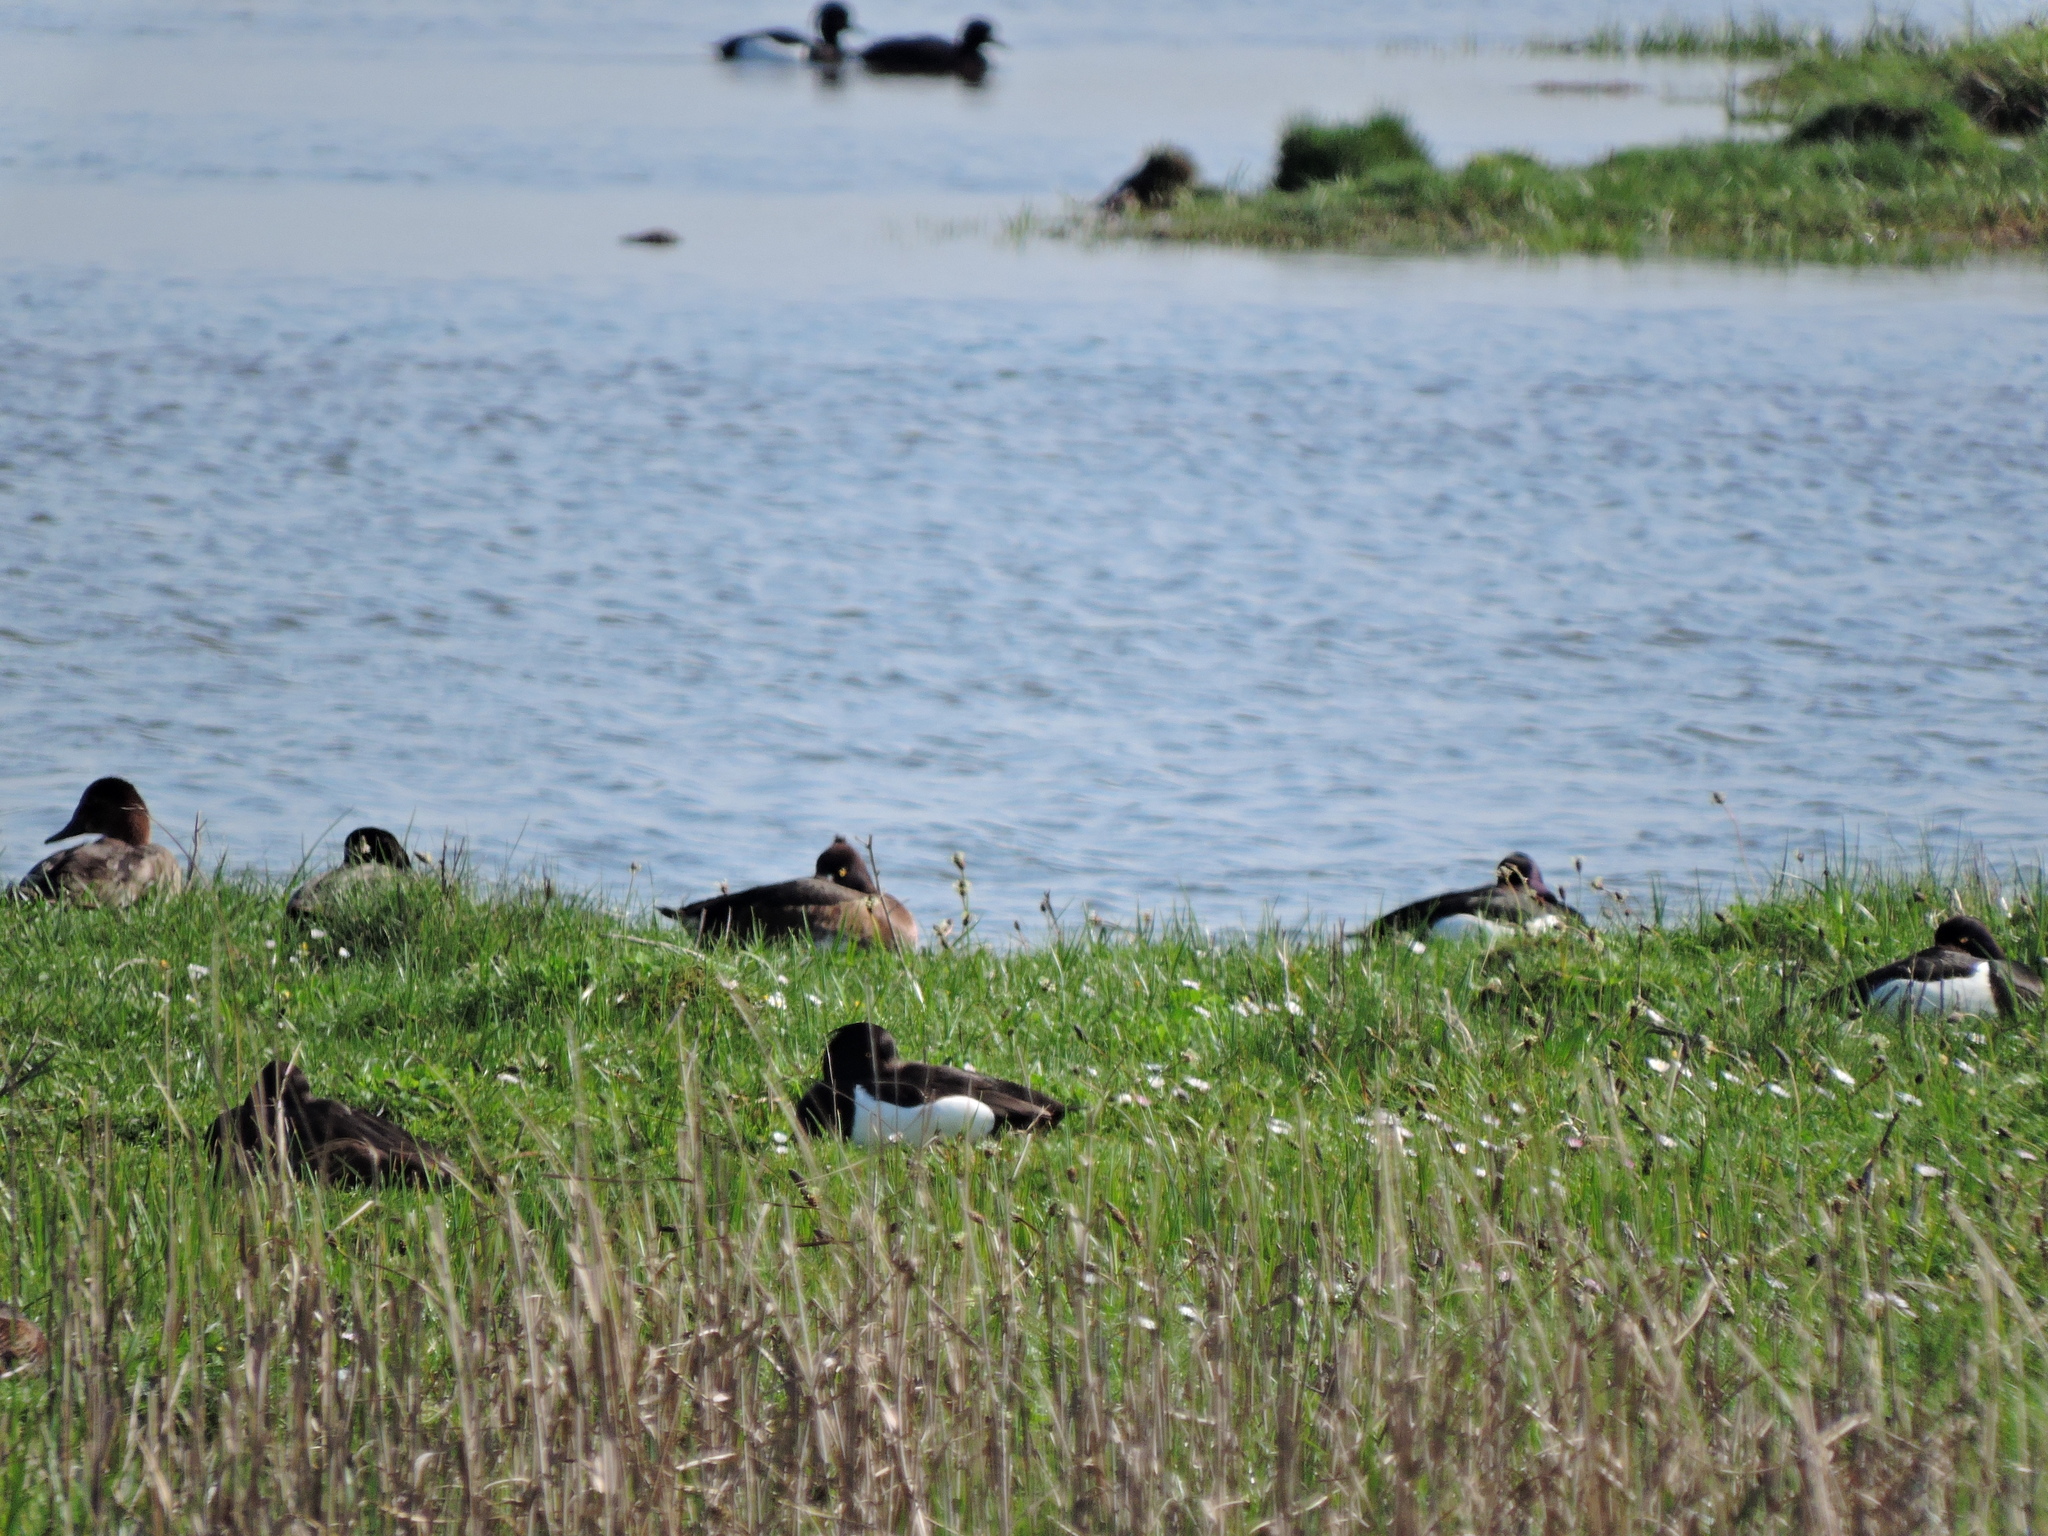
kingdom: Animalia
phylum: Chordata
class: Aves
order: Anseriformes
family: Anatidae
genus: Aythya
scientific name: Aythya fuligula
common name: Tufted duck
